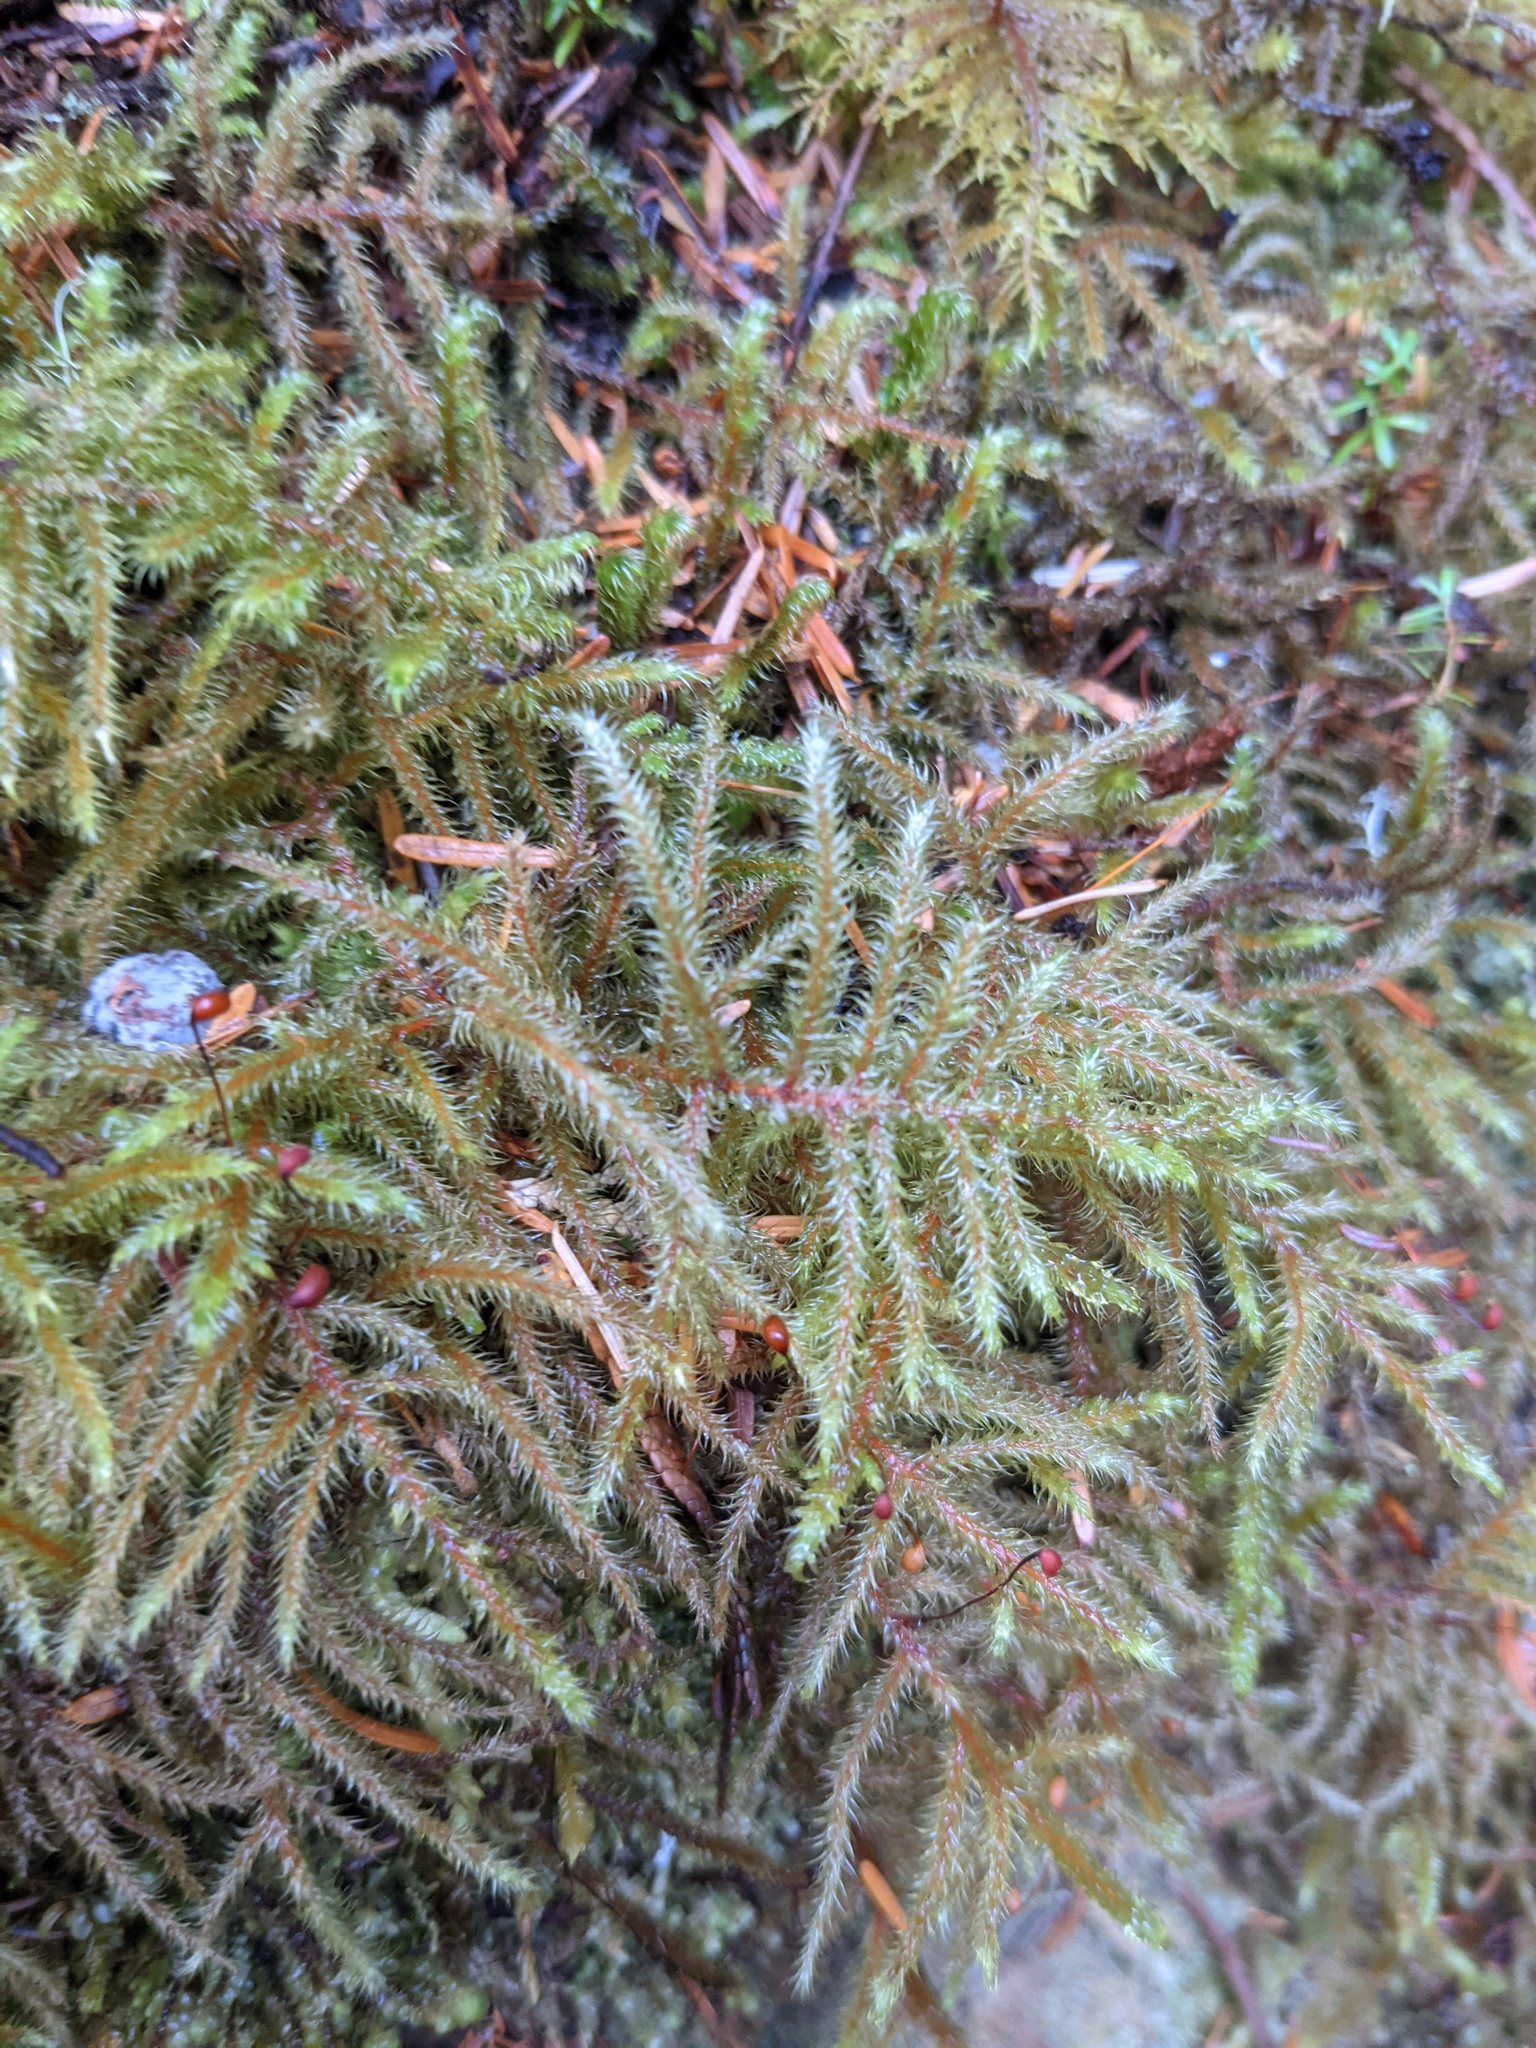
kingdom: Plantae
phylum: Bryophyta
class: Bryopsida
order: Hypnales
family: Hylocomiaceae
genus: Rhytidiadelphus
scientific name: Rhytidiadelphus loreus
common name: Lanky moss
